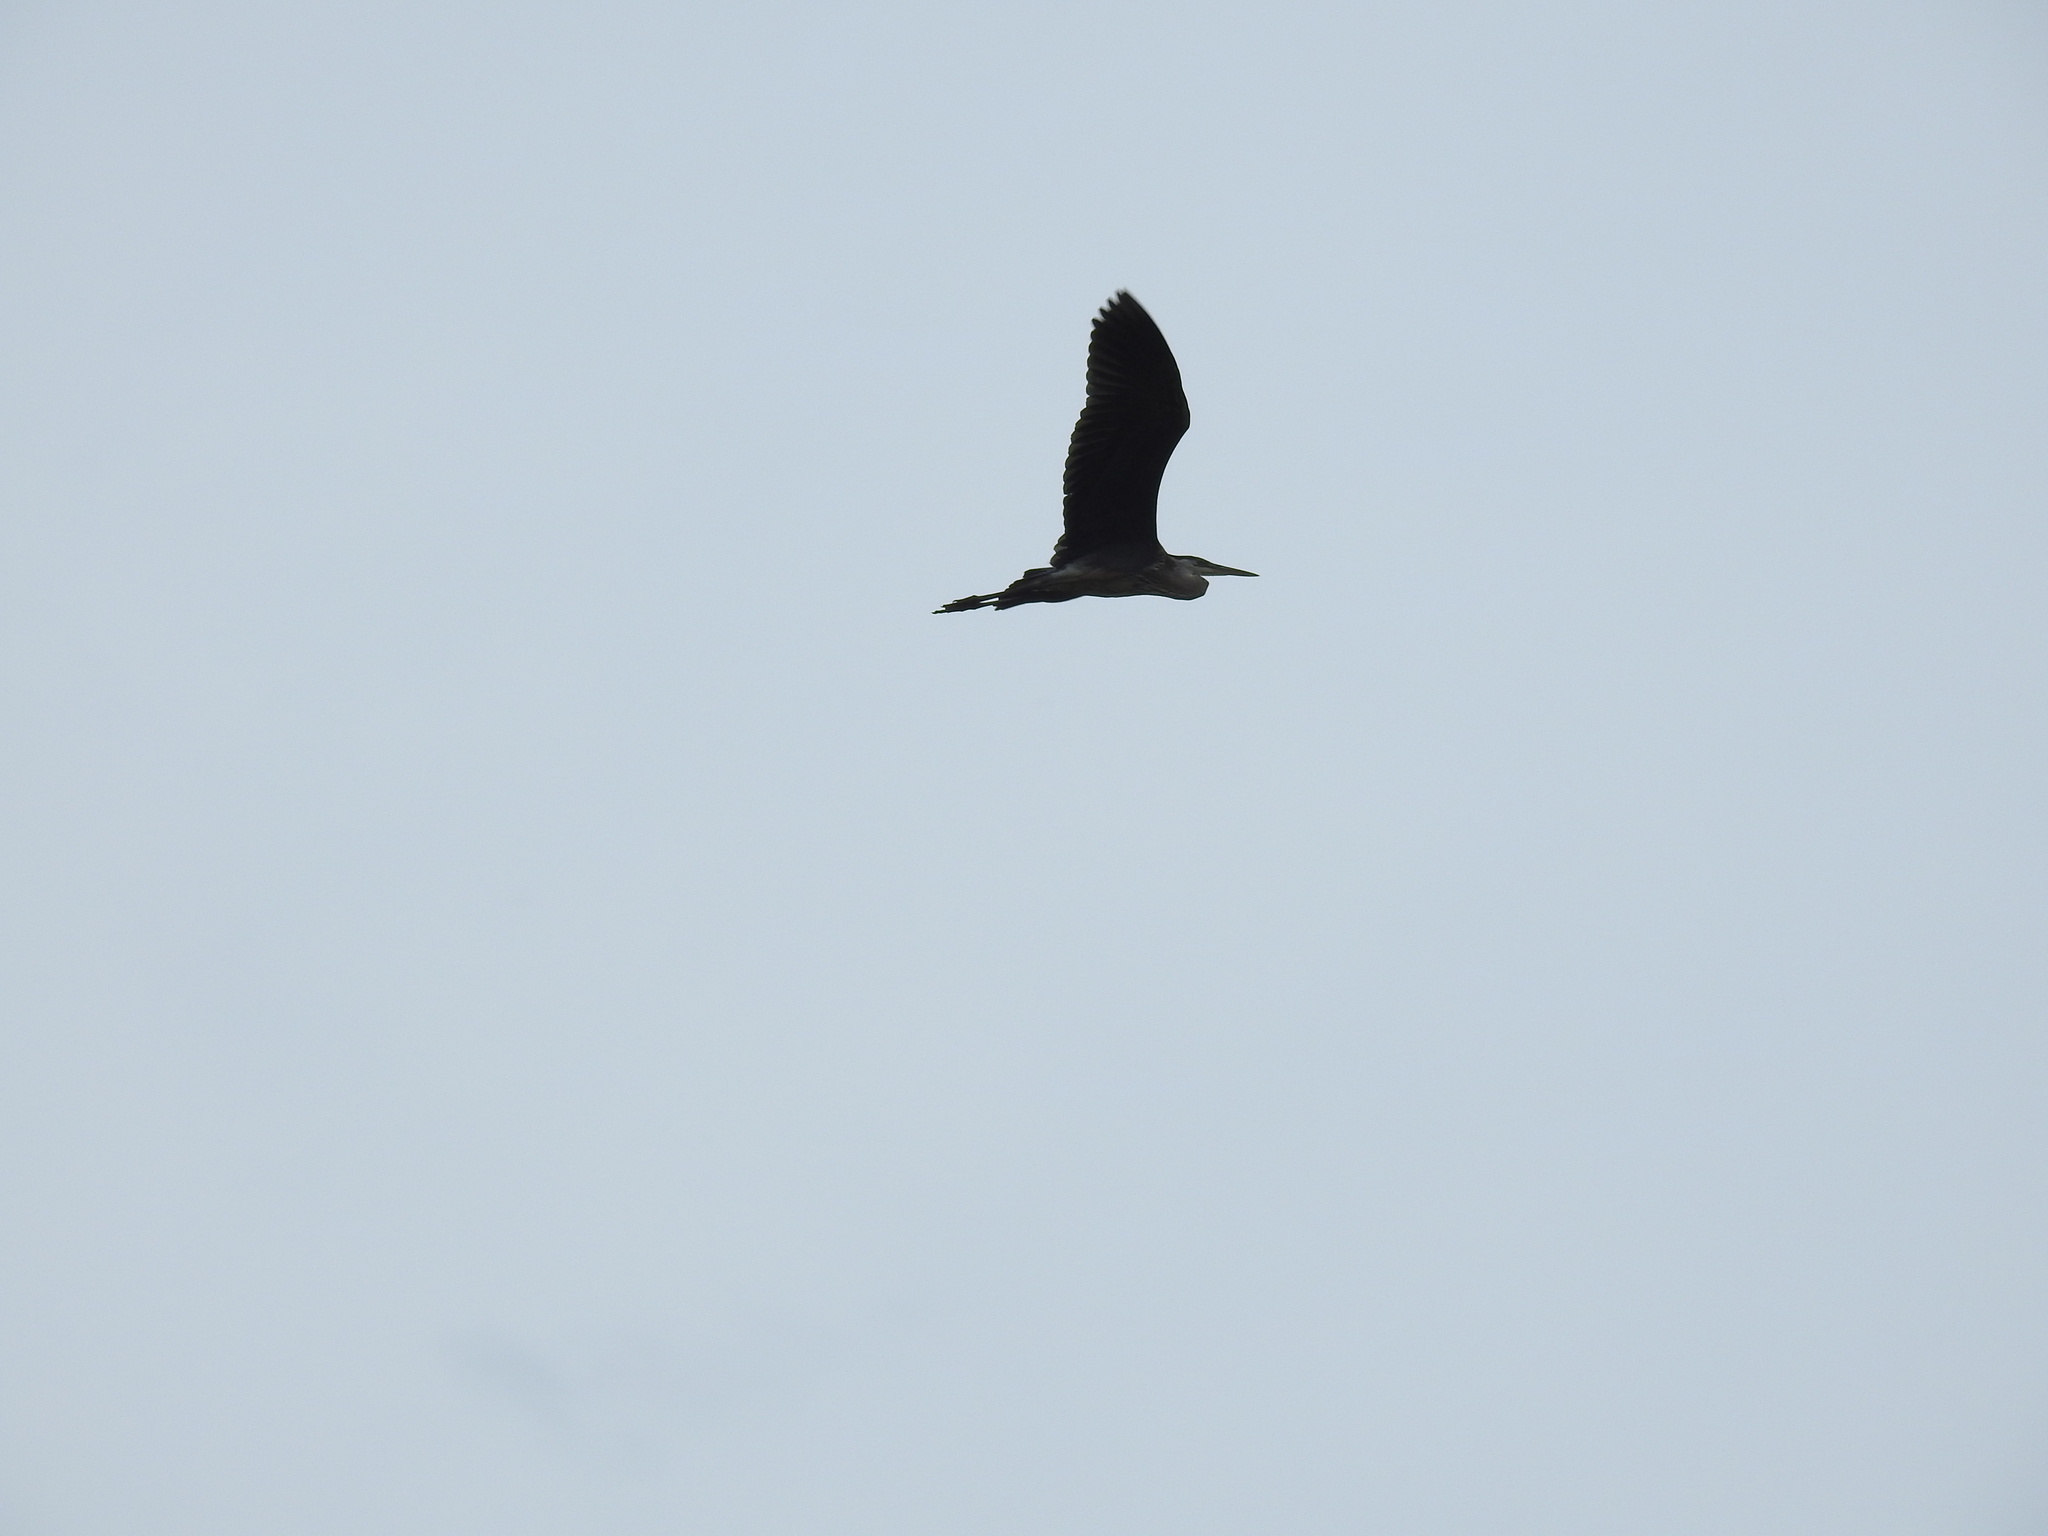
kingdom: Animalia
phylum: Chordata
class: Aves
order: Pelecaniformes
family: Ardeidae
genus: Ardea
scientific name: Ardea herodias
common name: Great blue heron
